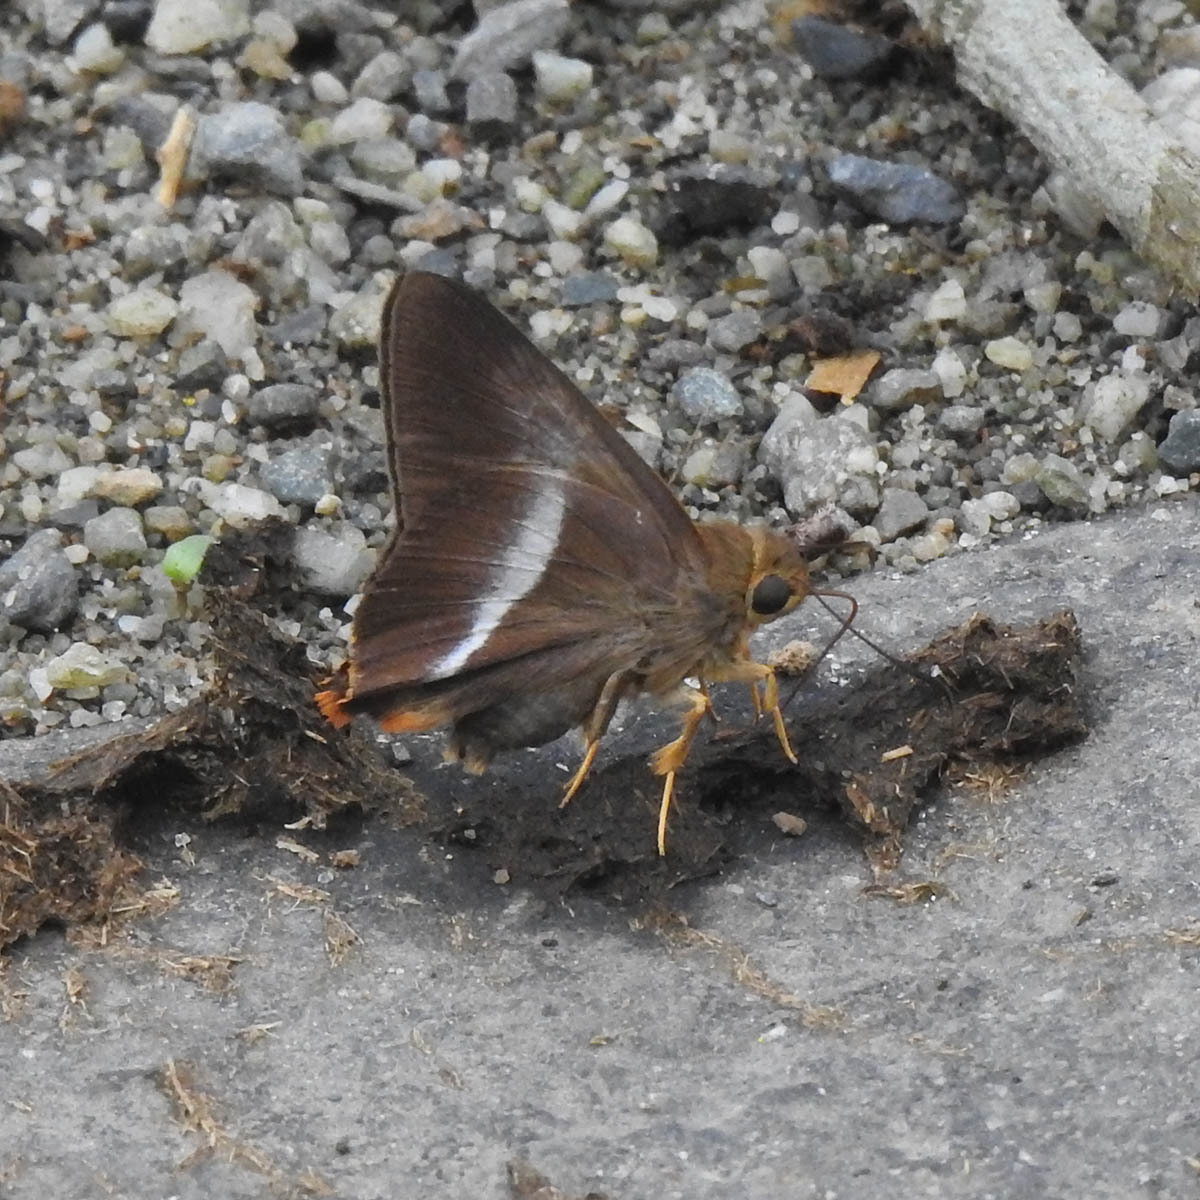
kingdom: Animalia
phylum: Arthropoda
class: Insecta
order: Lepidoptera
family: Hesperiidae
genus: Bibasis
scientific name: Bibasis sena
